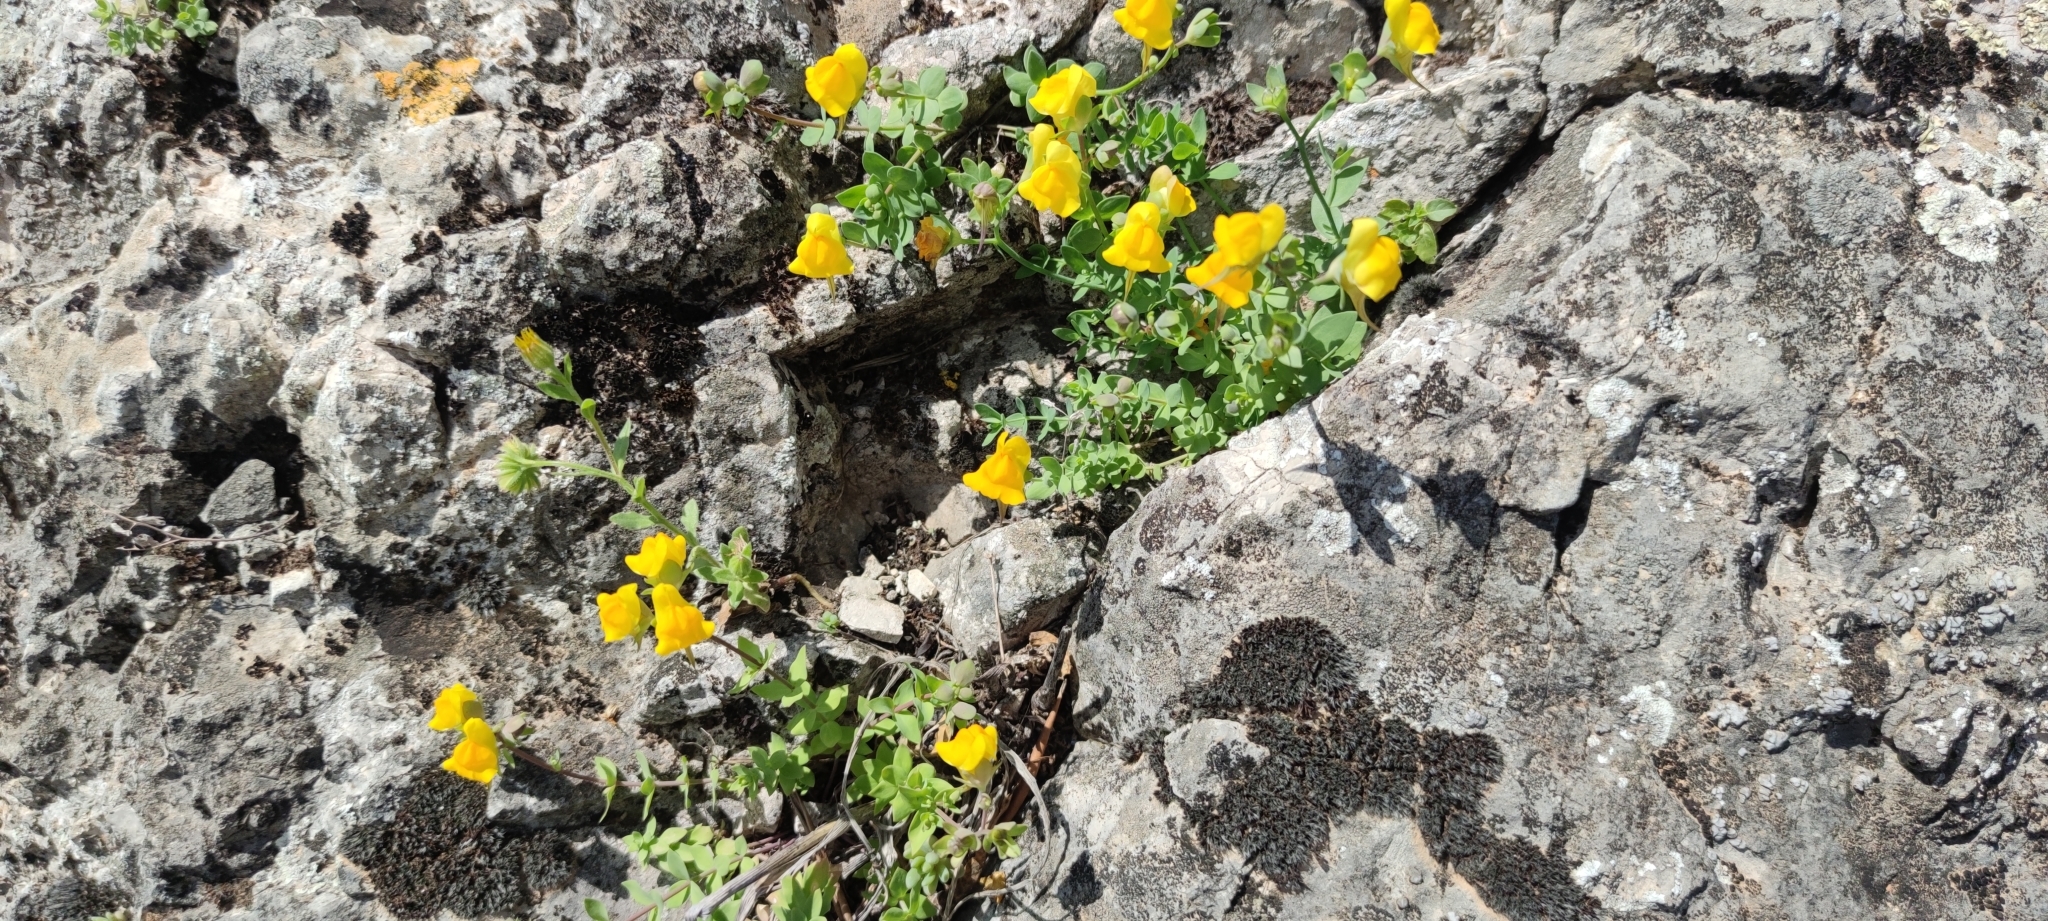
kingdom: Plantae
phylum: Tracheophyta
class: Magnoliopsida
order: Lamiales
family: Plantaginaceae
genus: Linaria
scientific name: Linaria platycalyx
